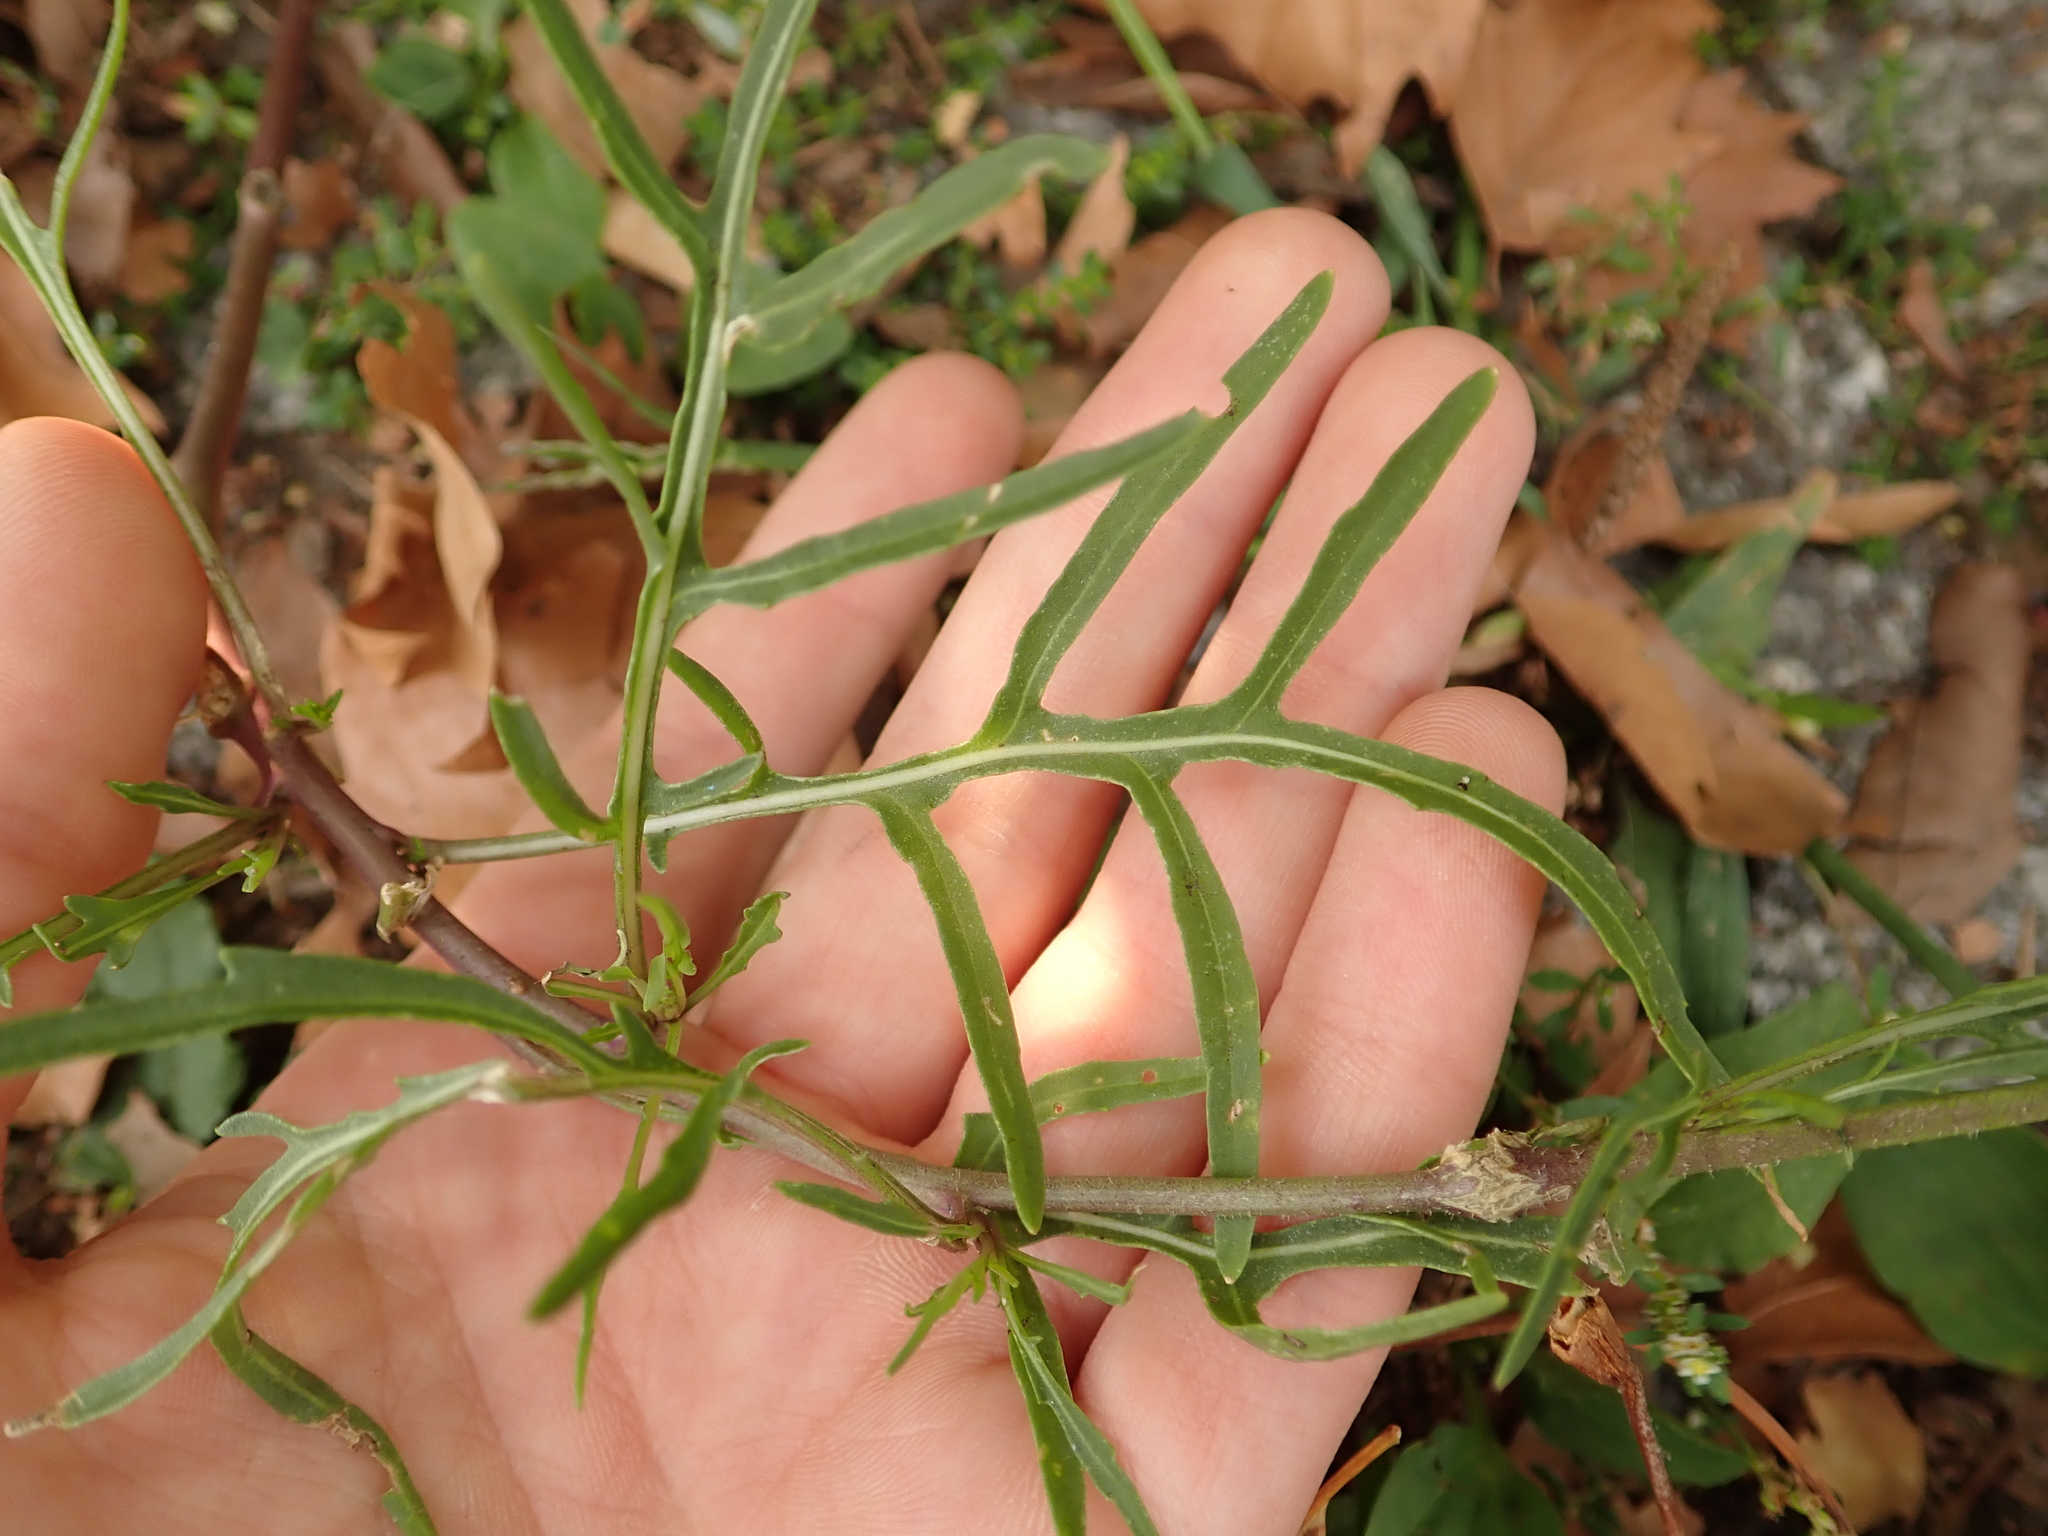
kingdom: Plantae
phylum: Tracheophyta
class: Magnoliopsida
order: Brassicales
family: Brassicaceae
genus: Diplotaxis
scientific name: Diplotaxis tenuifolia
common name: Perennial wall-rocket
